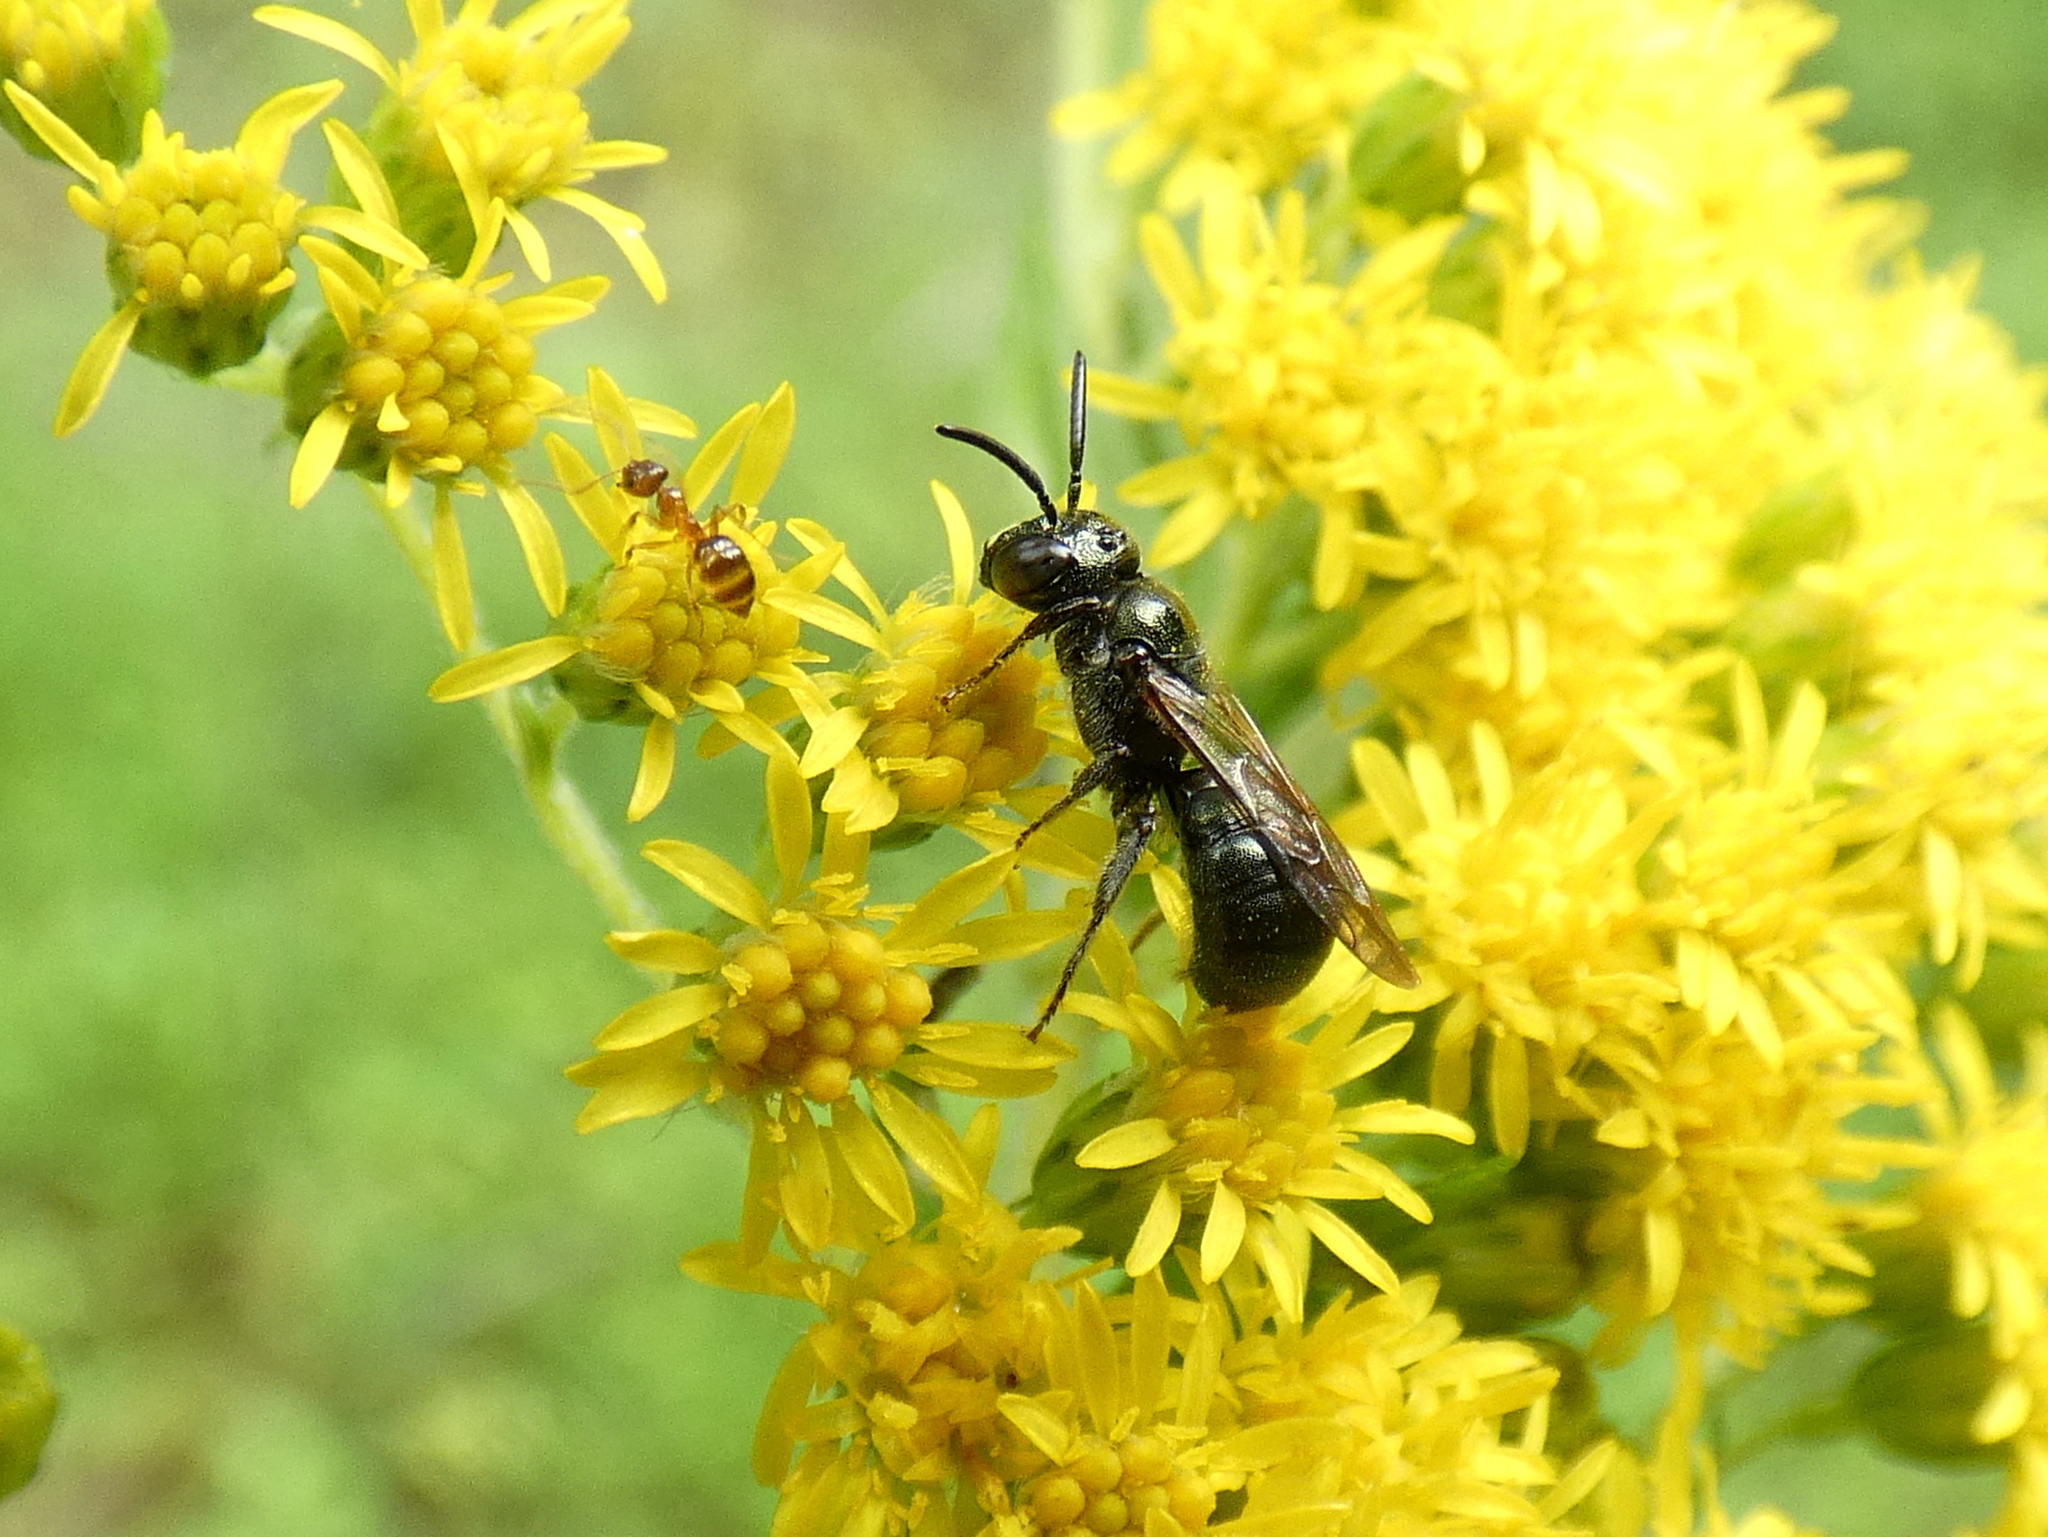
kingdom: Animalia
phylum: Arthropoda
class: Insecta
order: Hymenoptera
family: Apidae
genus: Ceratina
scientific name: Ceratina calcarata
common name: Spurred carpenter bee
